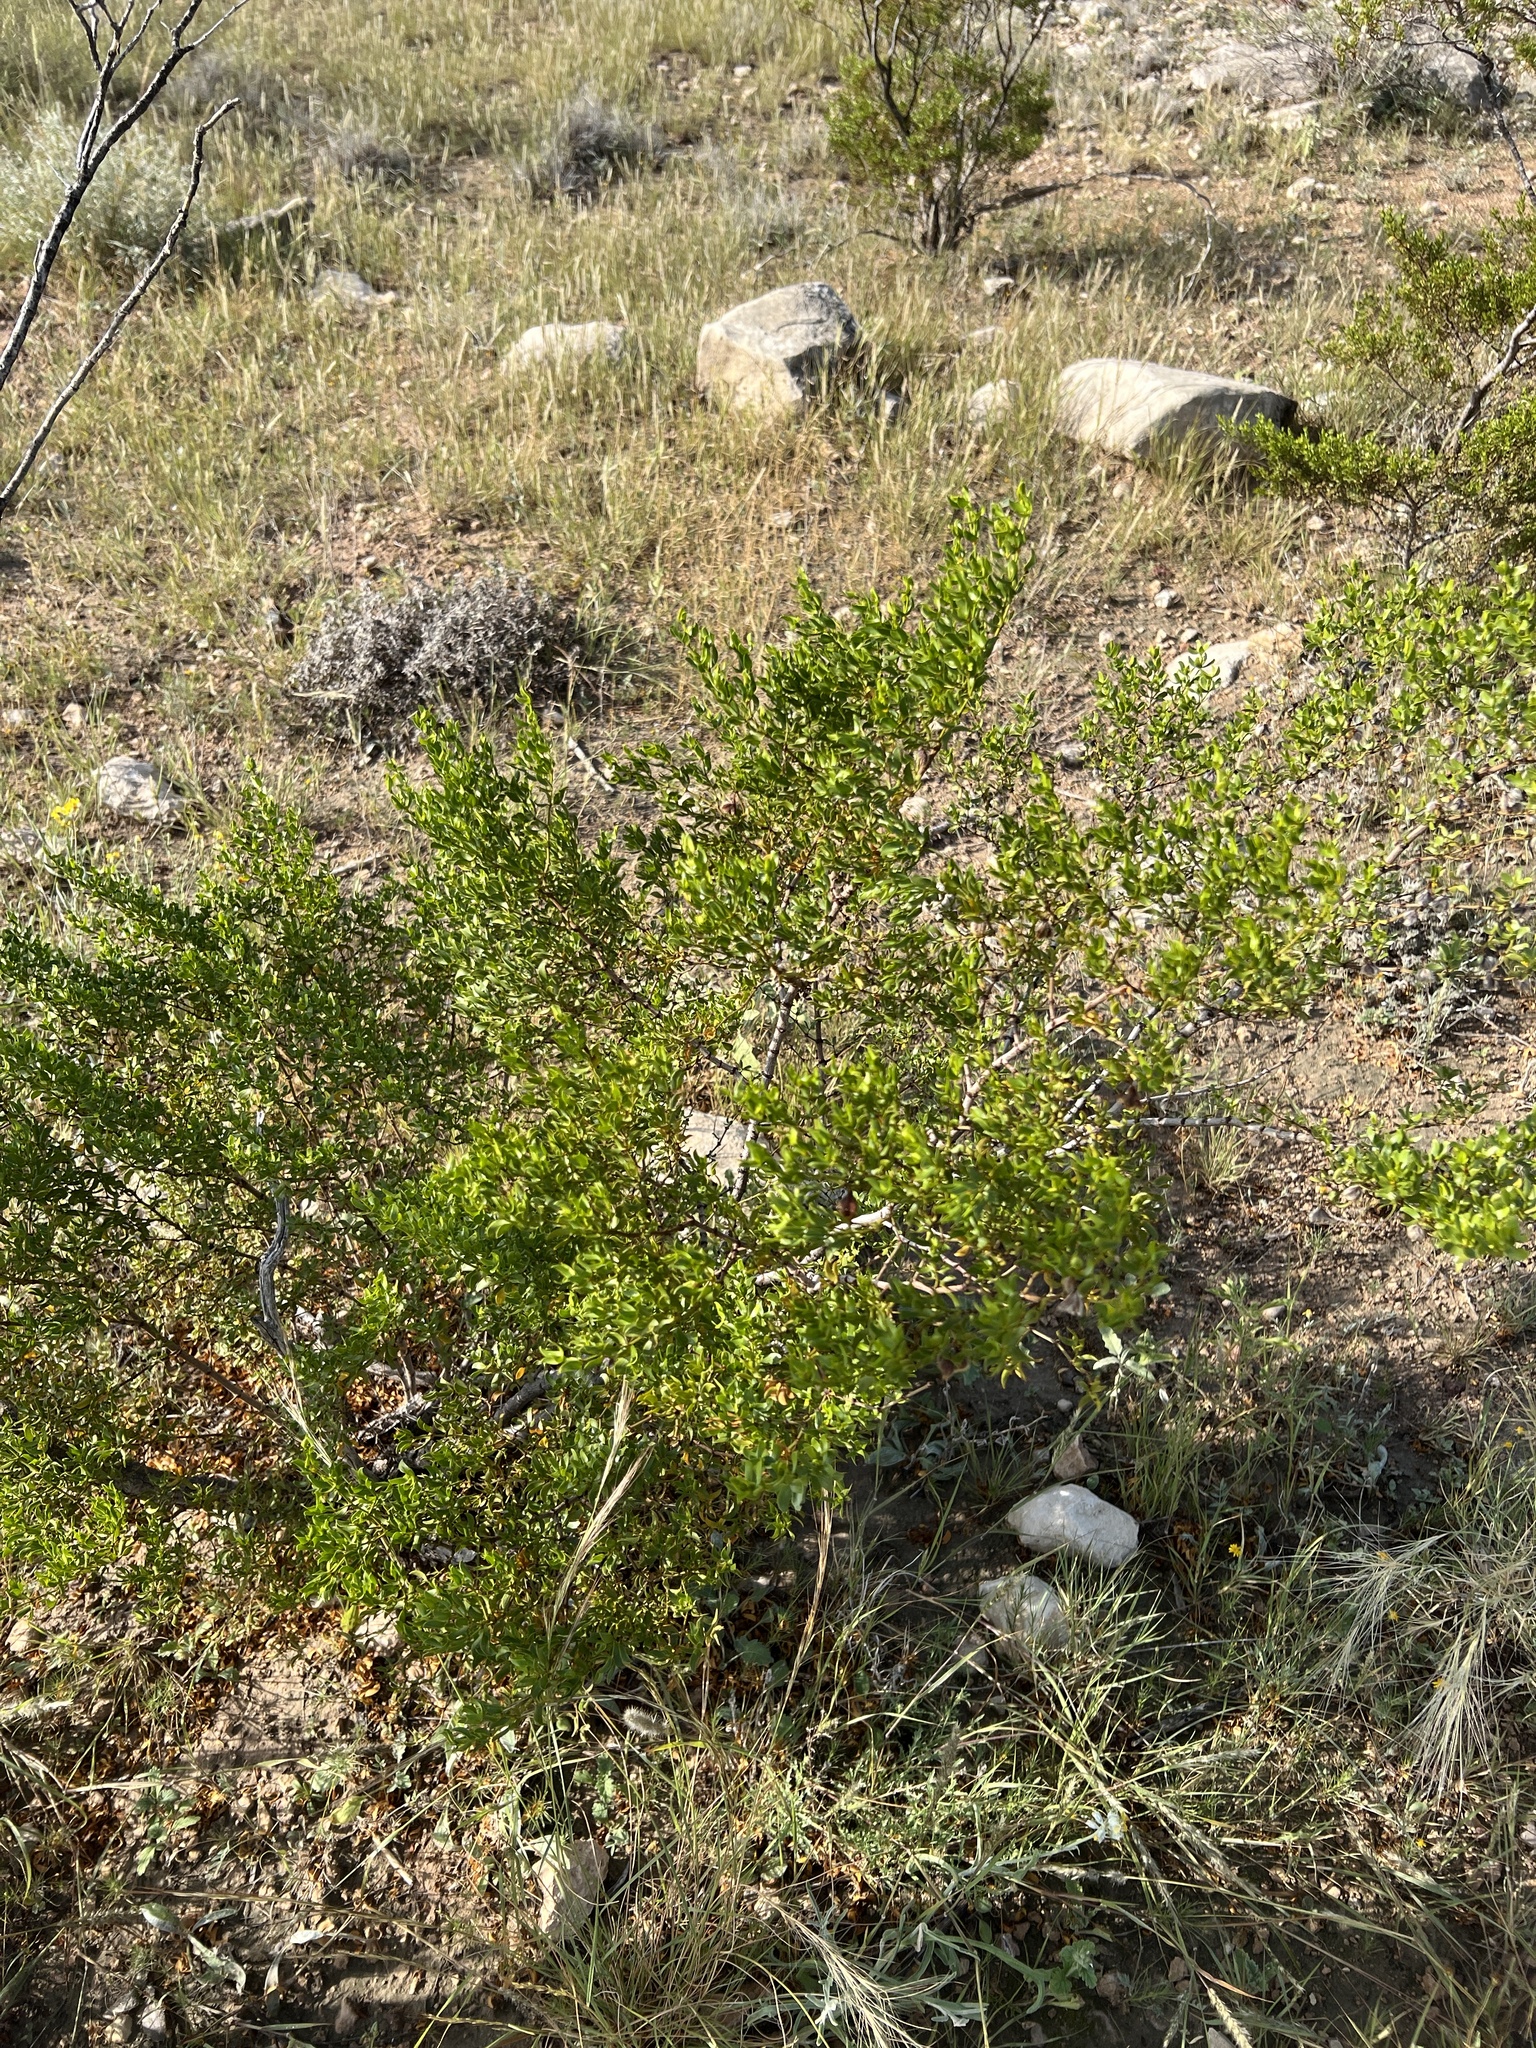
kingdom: Plantae
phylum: Tracheophyta
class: Magnoliopsida
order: Zygophyllales
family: Zygophyllaceae
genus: Larrea
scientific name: Larrea tridentata
